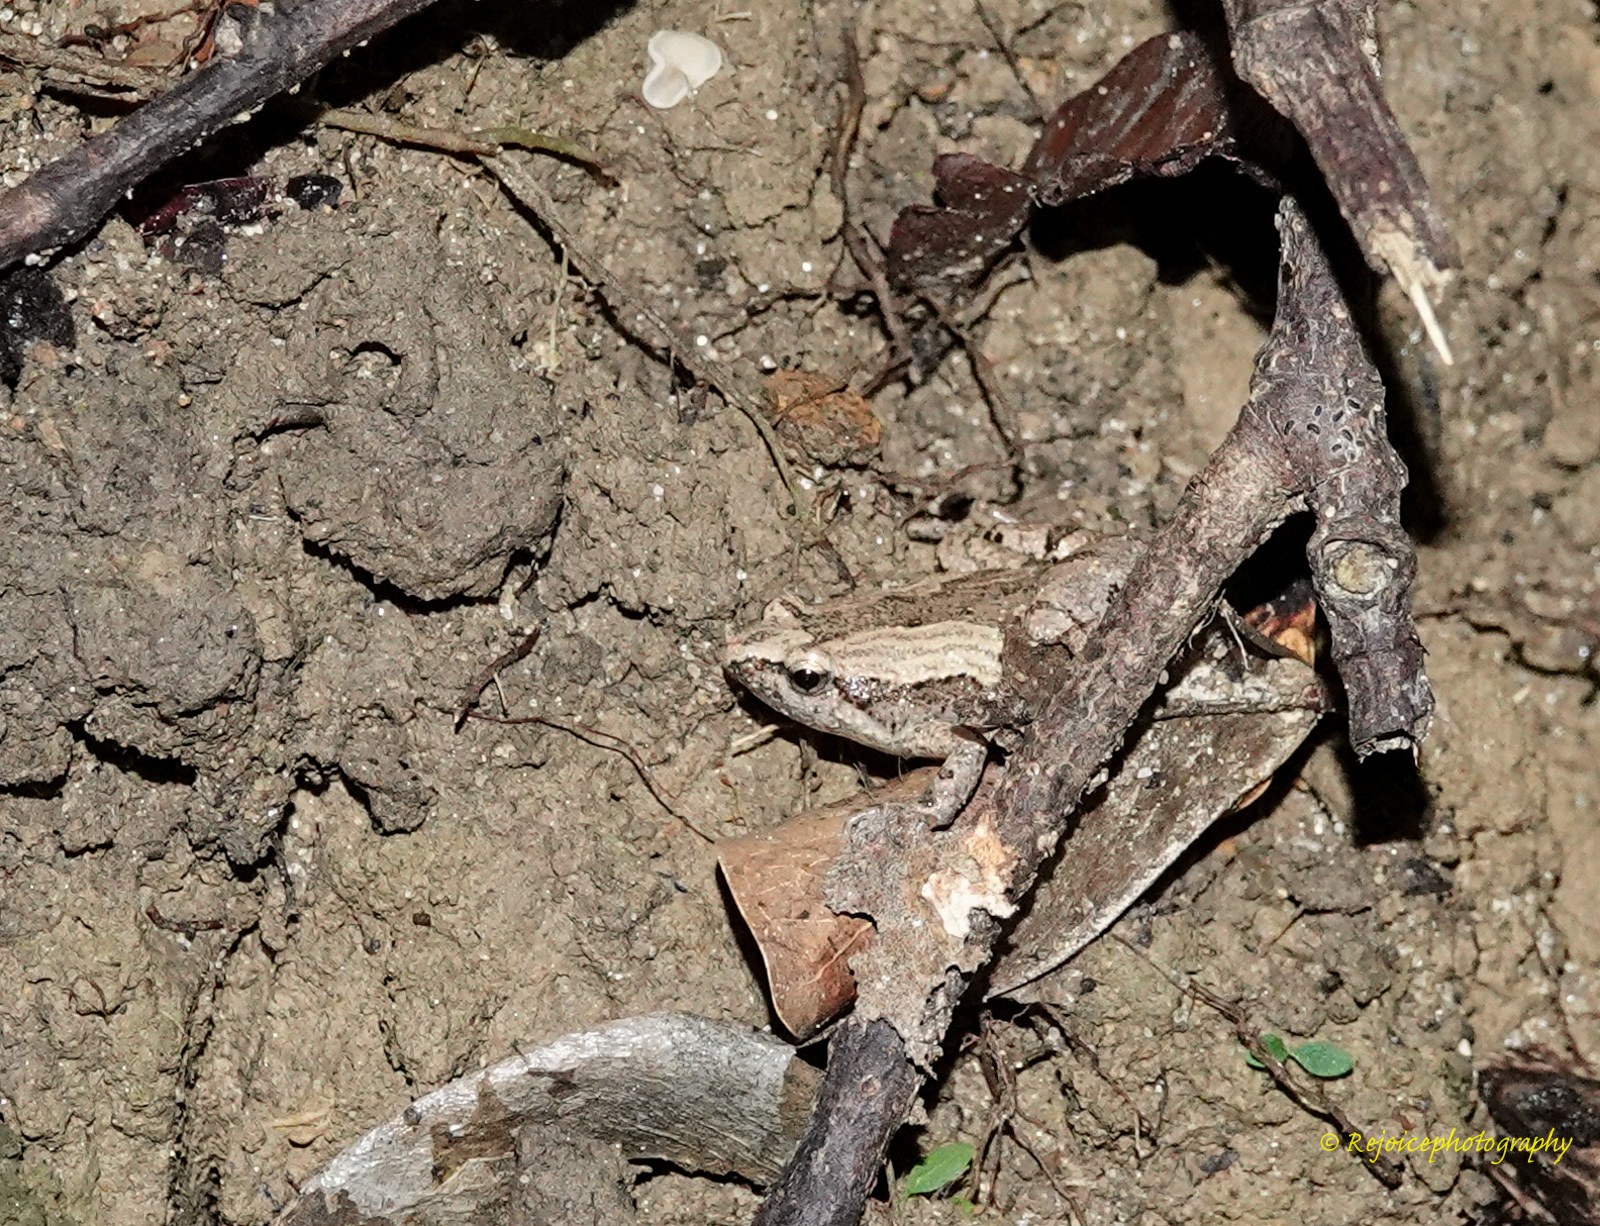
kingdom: Animalia
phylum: Chordata
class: Amphibia
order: Anura
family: Microhylidae
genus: Microhyla
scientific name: Microhyla mymensinghensis
